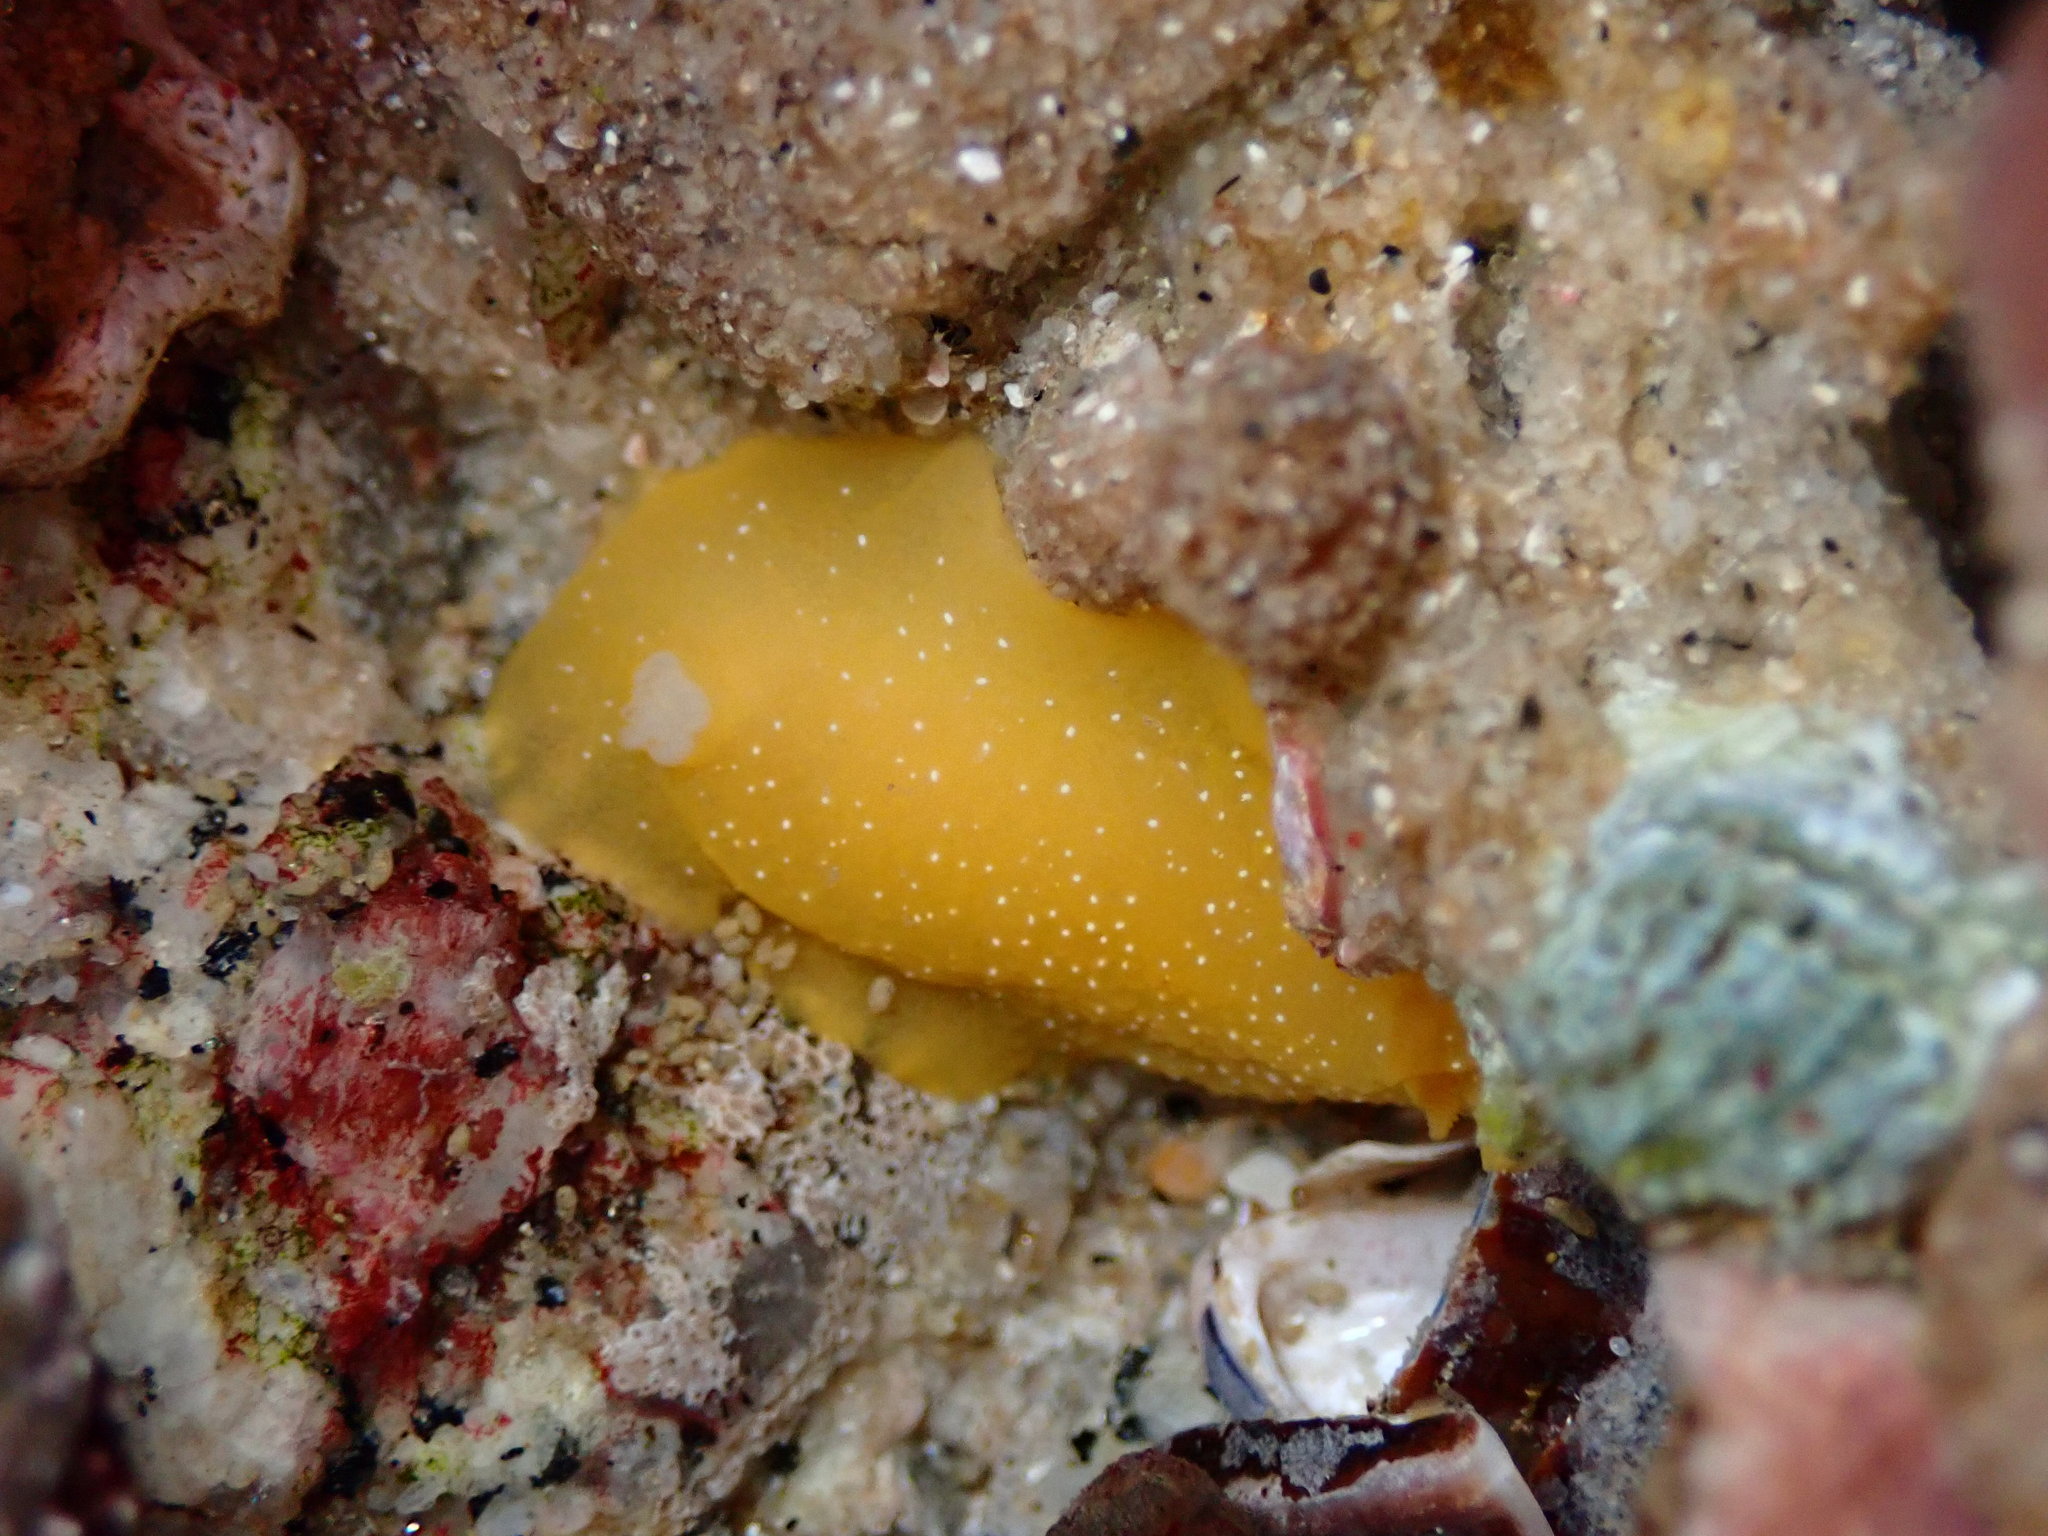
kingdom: Animalia
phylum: Mollusca
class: Gastropoda
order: Nudibranchia
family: Dendrodorididae
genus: Doriopsilla
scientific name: Doriopsilla fulva
